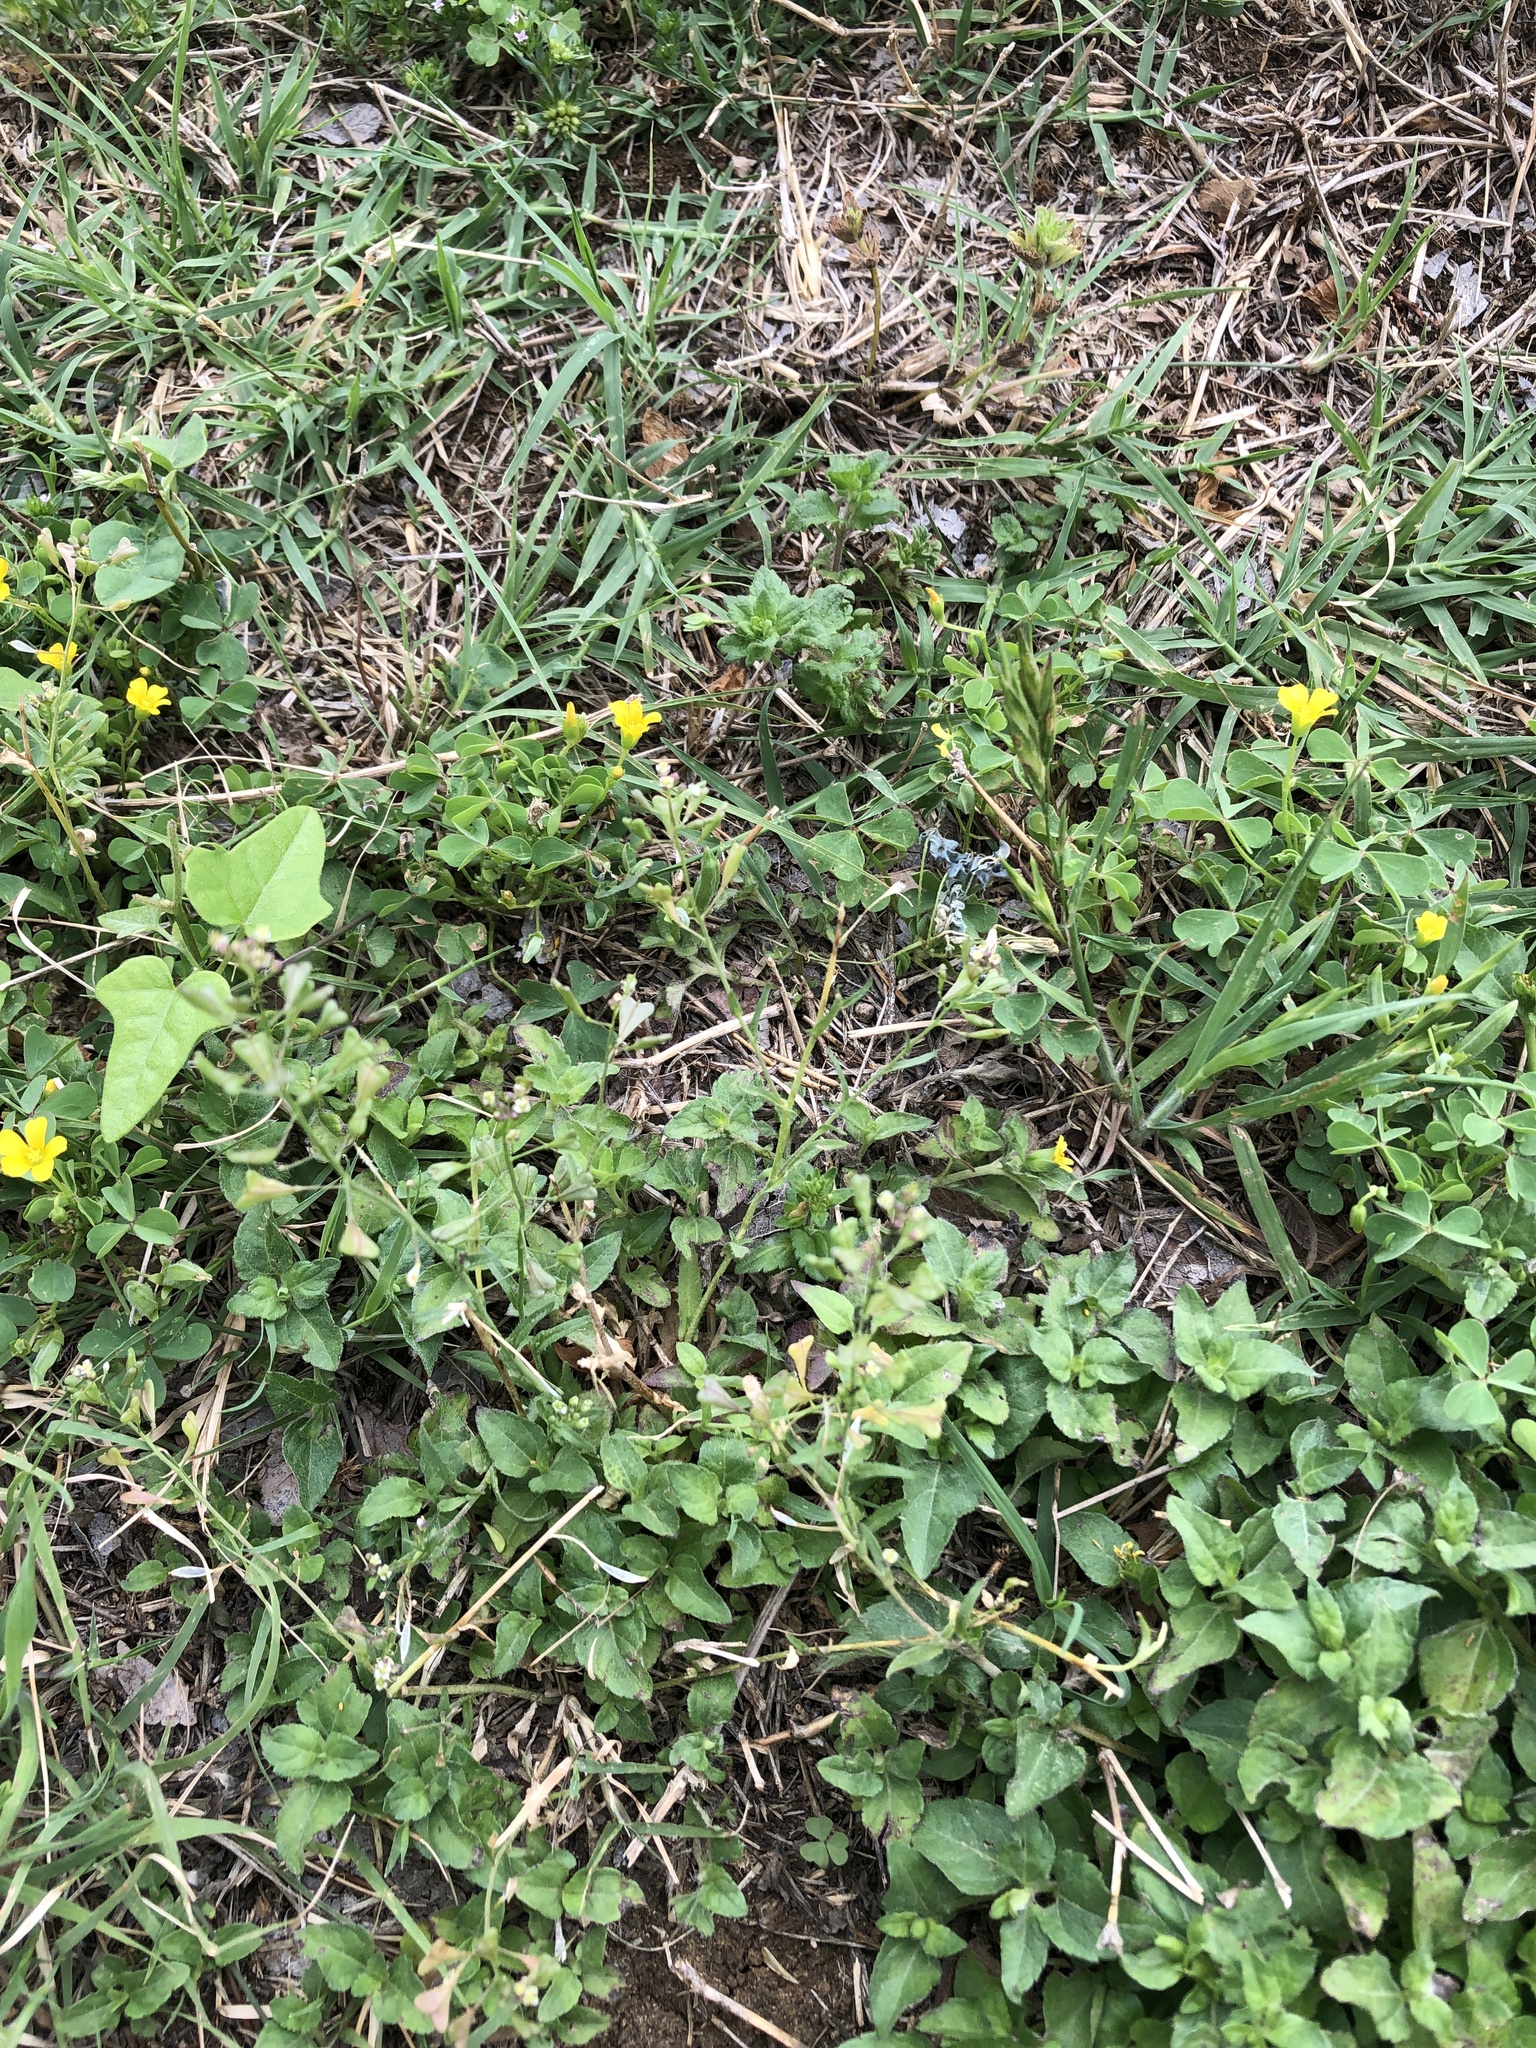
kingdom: Plantae
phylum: Tracheophyta
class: Magnoliopsida
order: Brassicales
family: Brassicaceae
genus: Capsella
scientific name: Capsella bursa-pastoris
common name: Shepherd's purse
